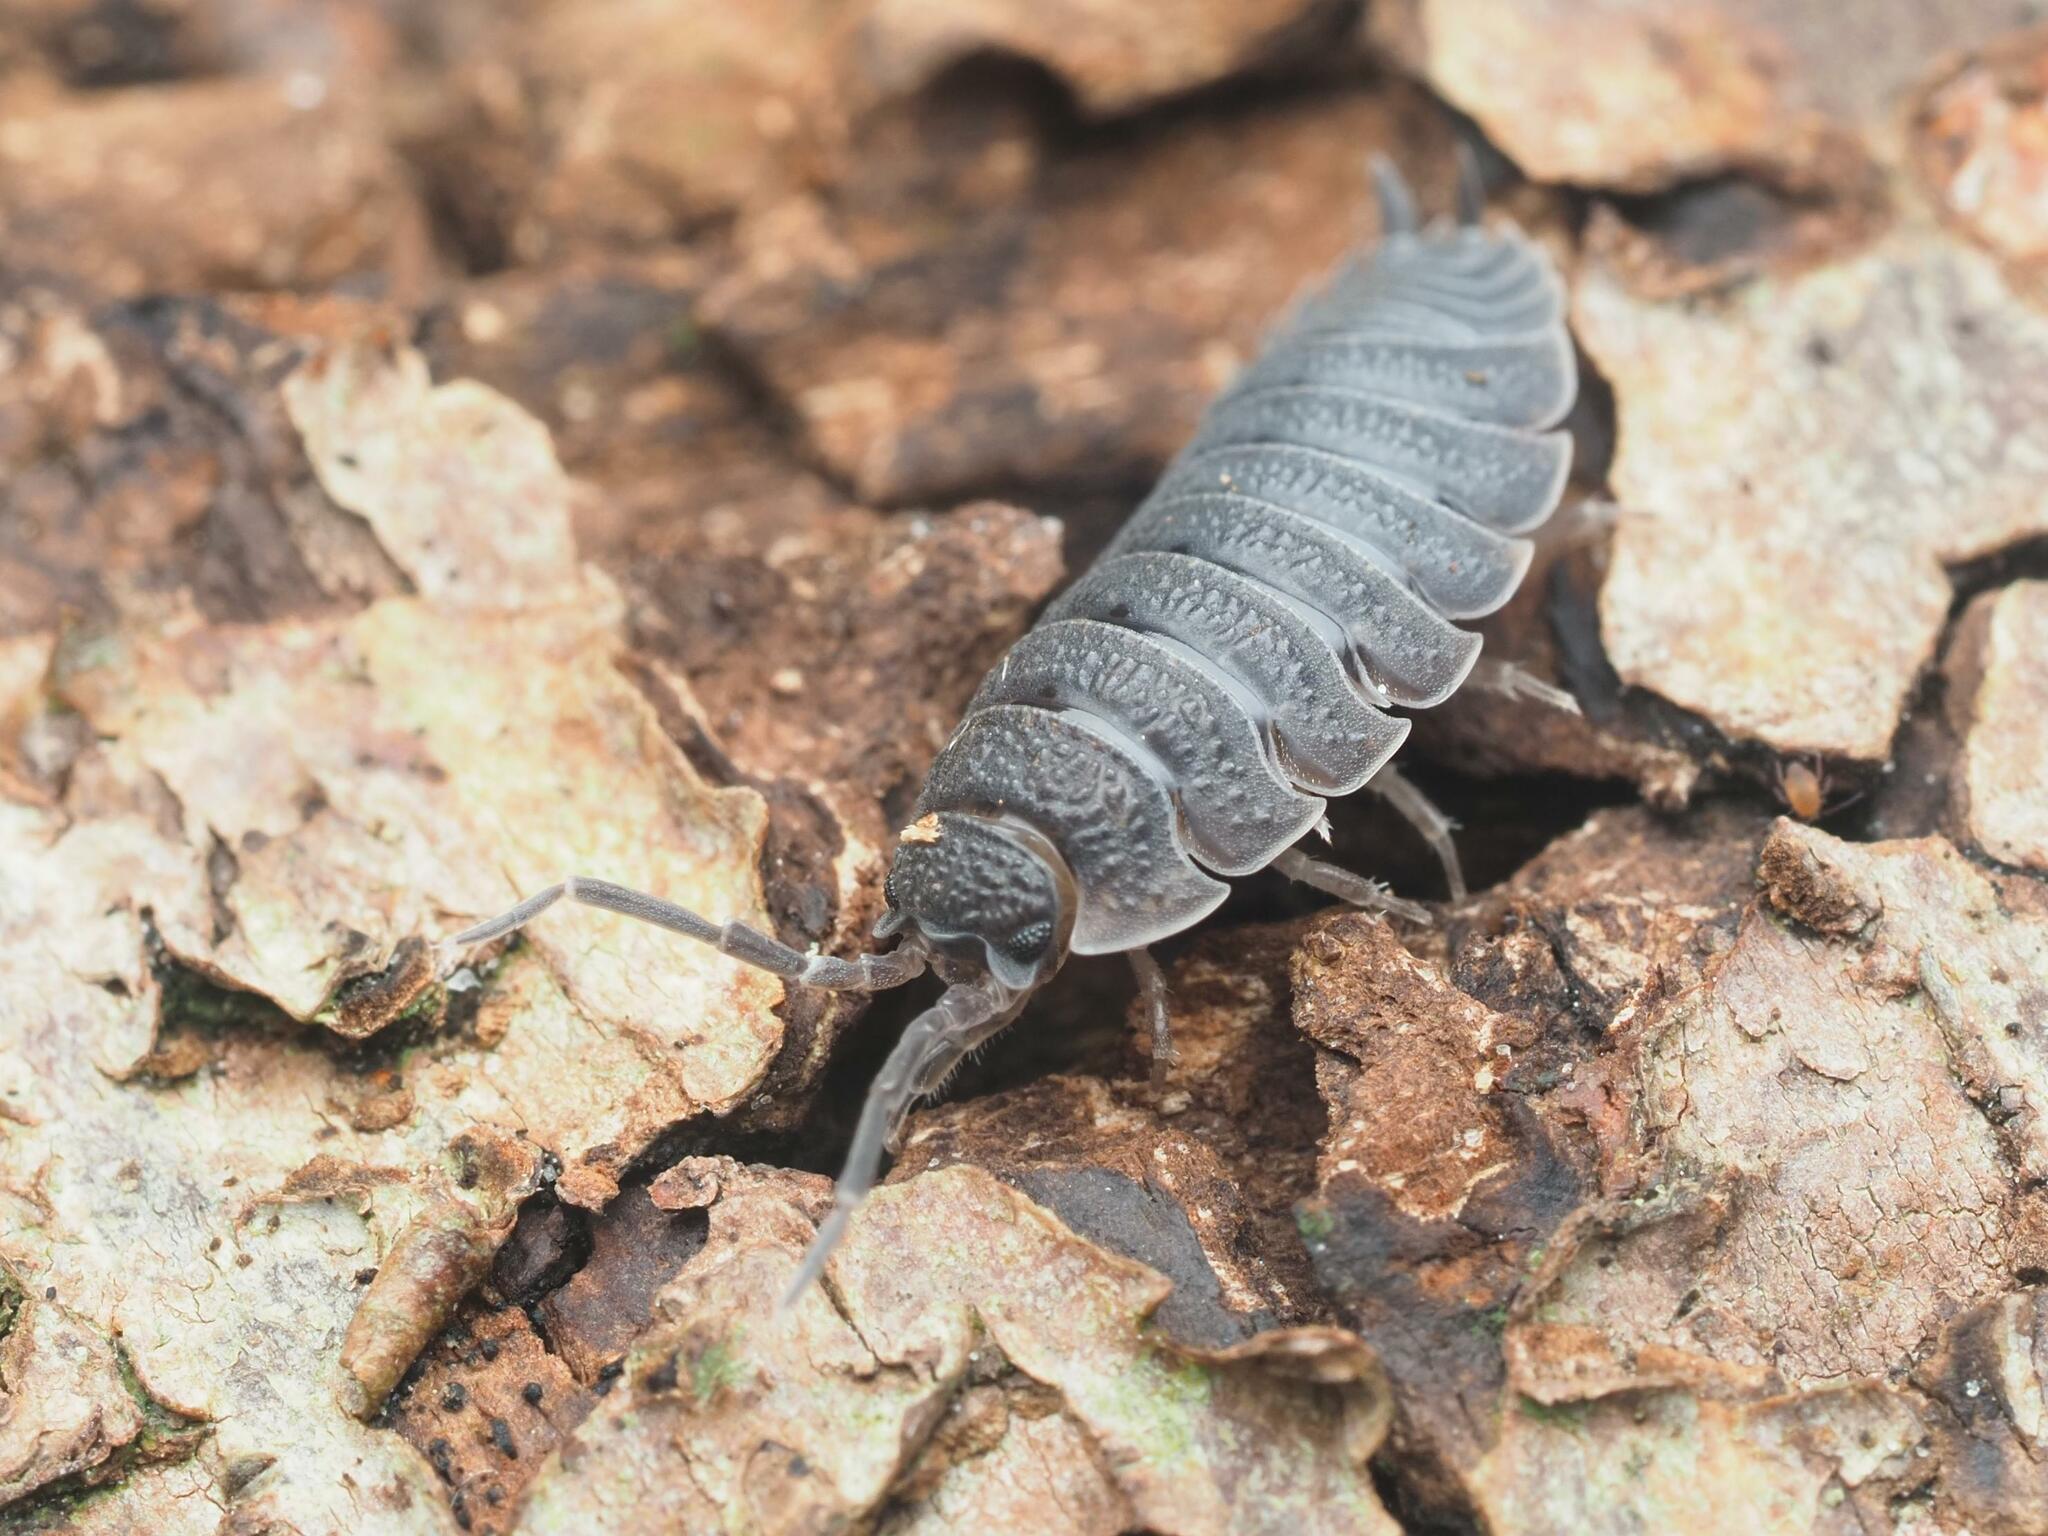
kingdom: Animalia
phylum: Arthropoda
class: Malacostraca
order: Isopoda
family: Porcellionidae
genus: Porcellio
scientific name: Porcellio scaber
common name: Common rough woodlouse
